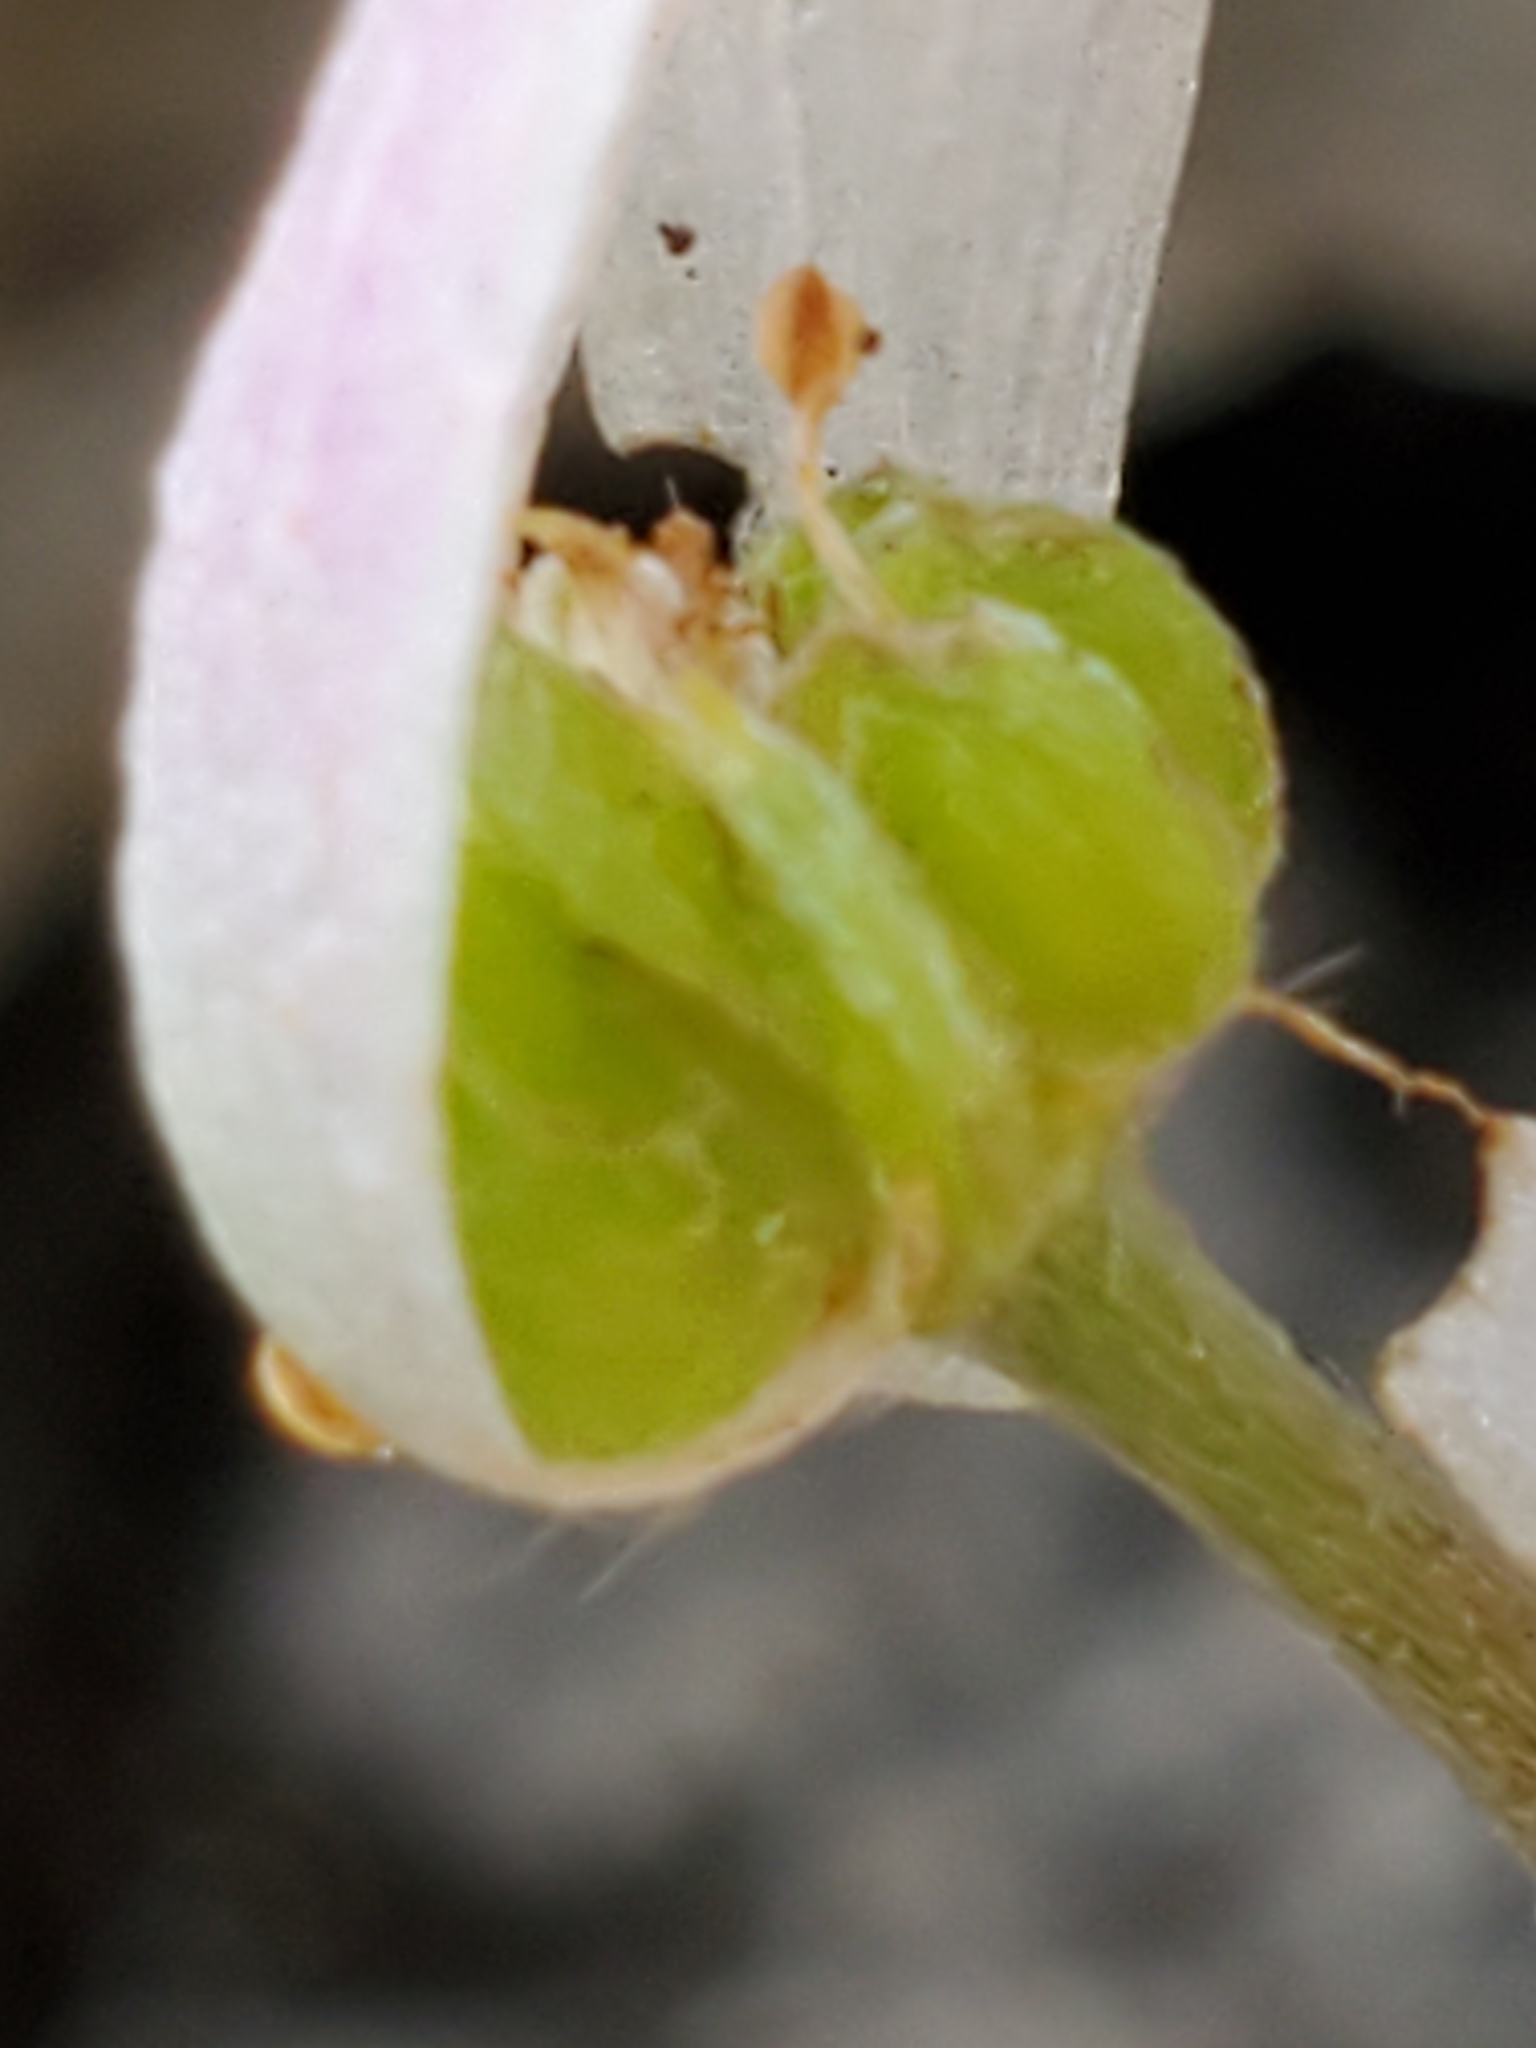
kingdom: Plantae
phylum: Tracheophyta
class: Magnoliopsida
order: Ranunculales
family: Ranunculaceae
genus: Anemone
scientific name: Anemone edwardsiana
